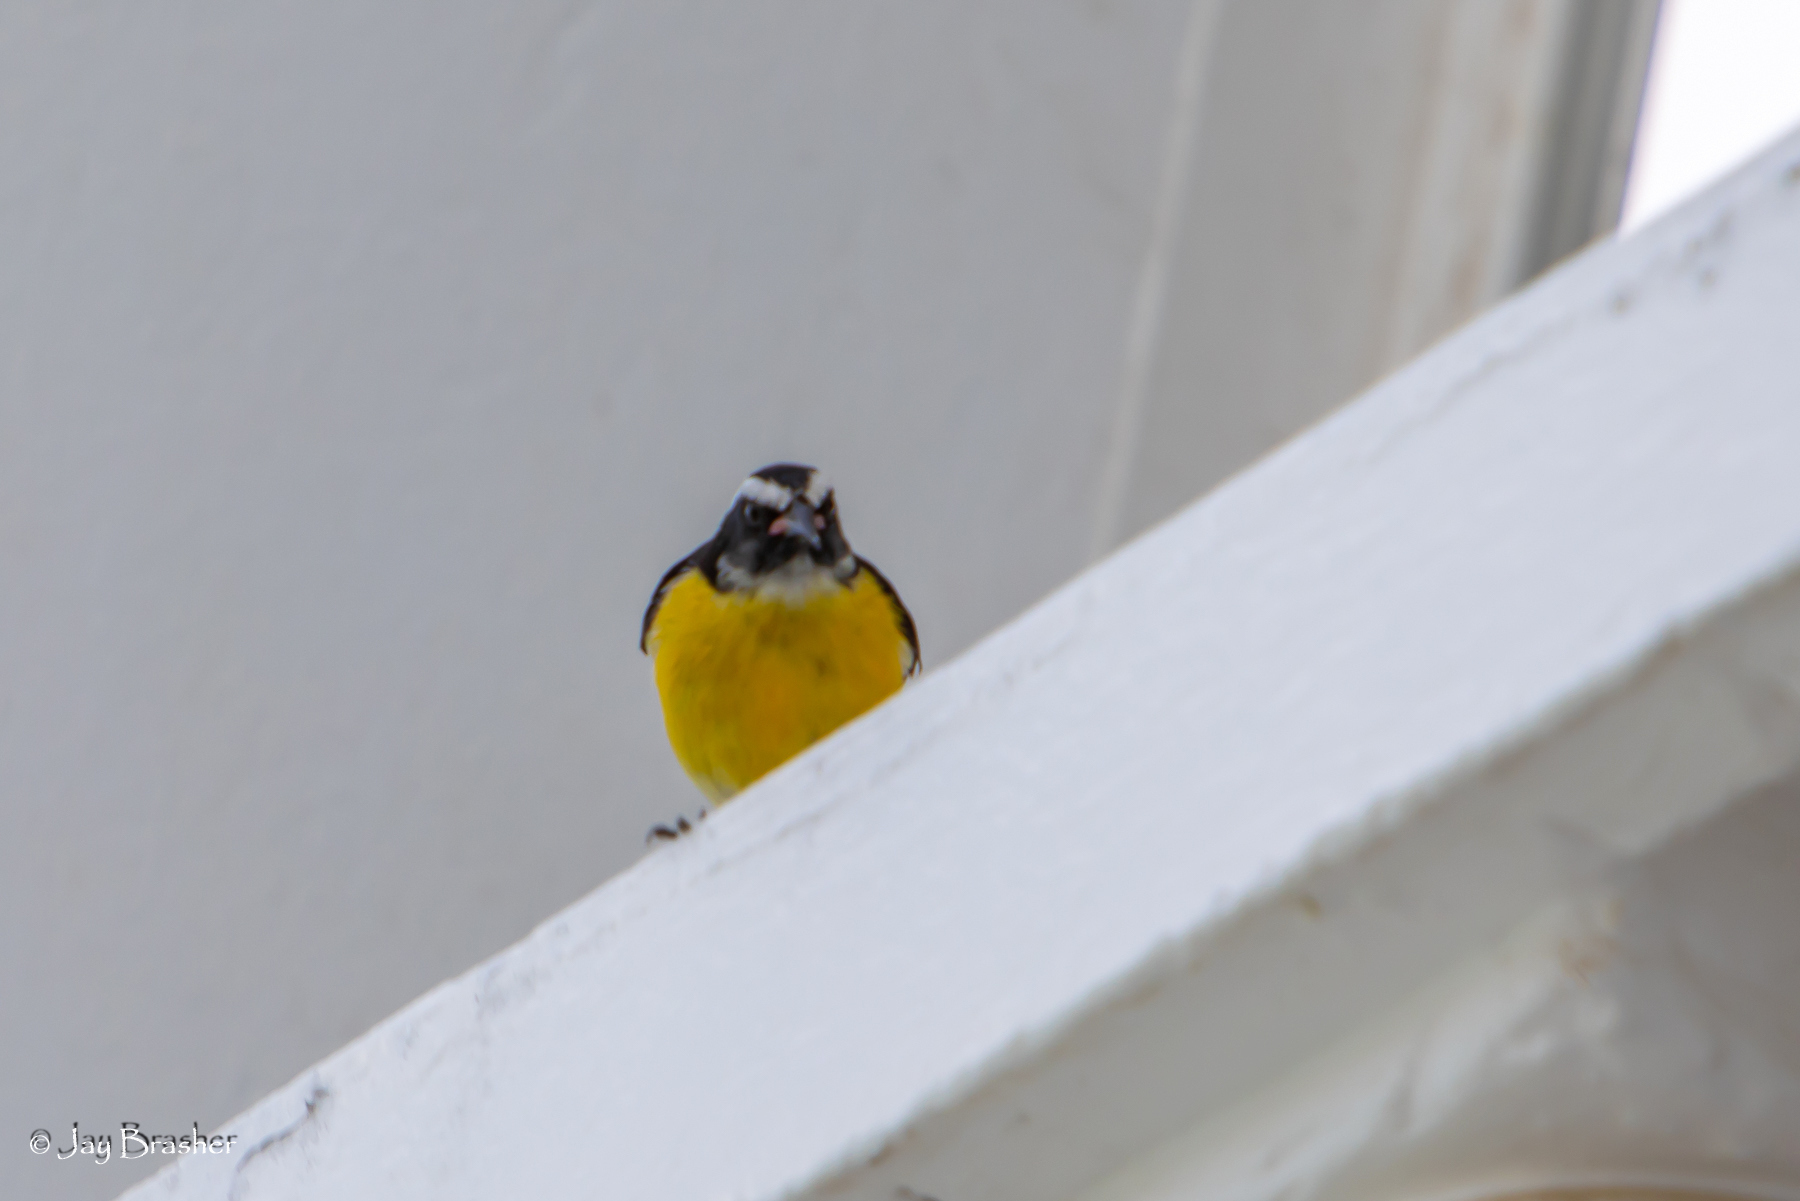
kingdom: Animalia
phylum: Chordata
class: Aves
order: Passeriformes
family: Thraupidae
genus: Coereba
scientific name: Coereba flaveola
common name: Bananaquit
